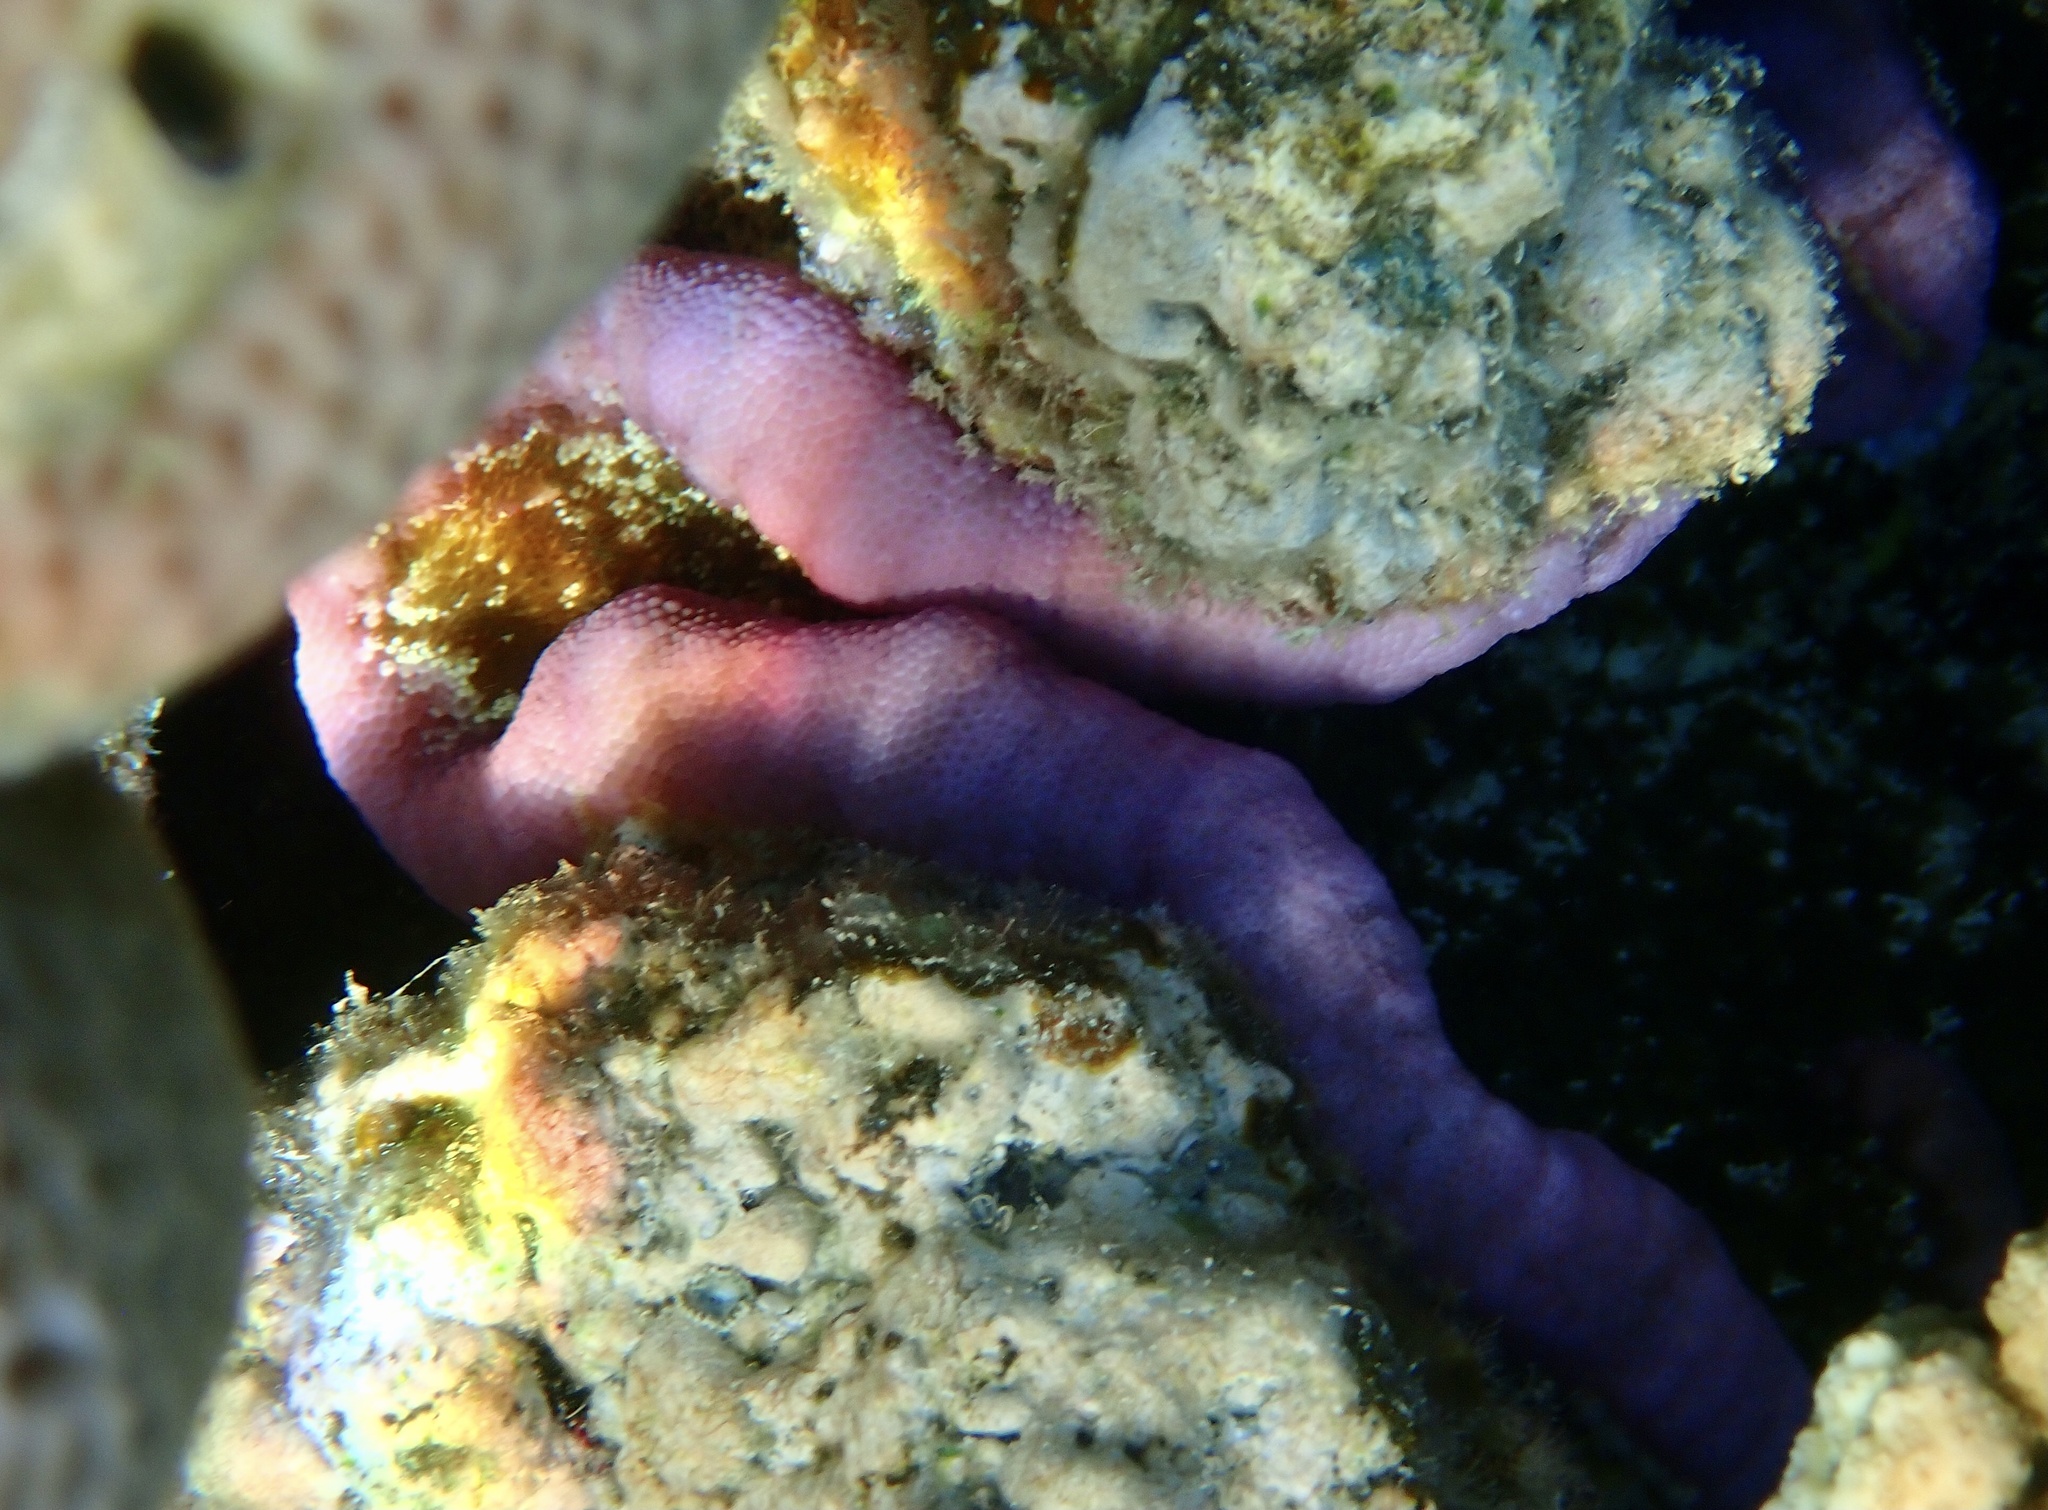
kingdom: Animalia
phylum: Cnidaria
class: Anthozoa
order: Actiniaria
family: Thalassianthidae
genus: Cryptodendrum
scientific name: Cryptodendrum adhaesivum
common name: Adhesive sea anemone
